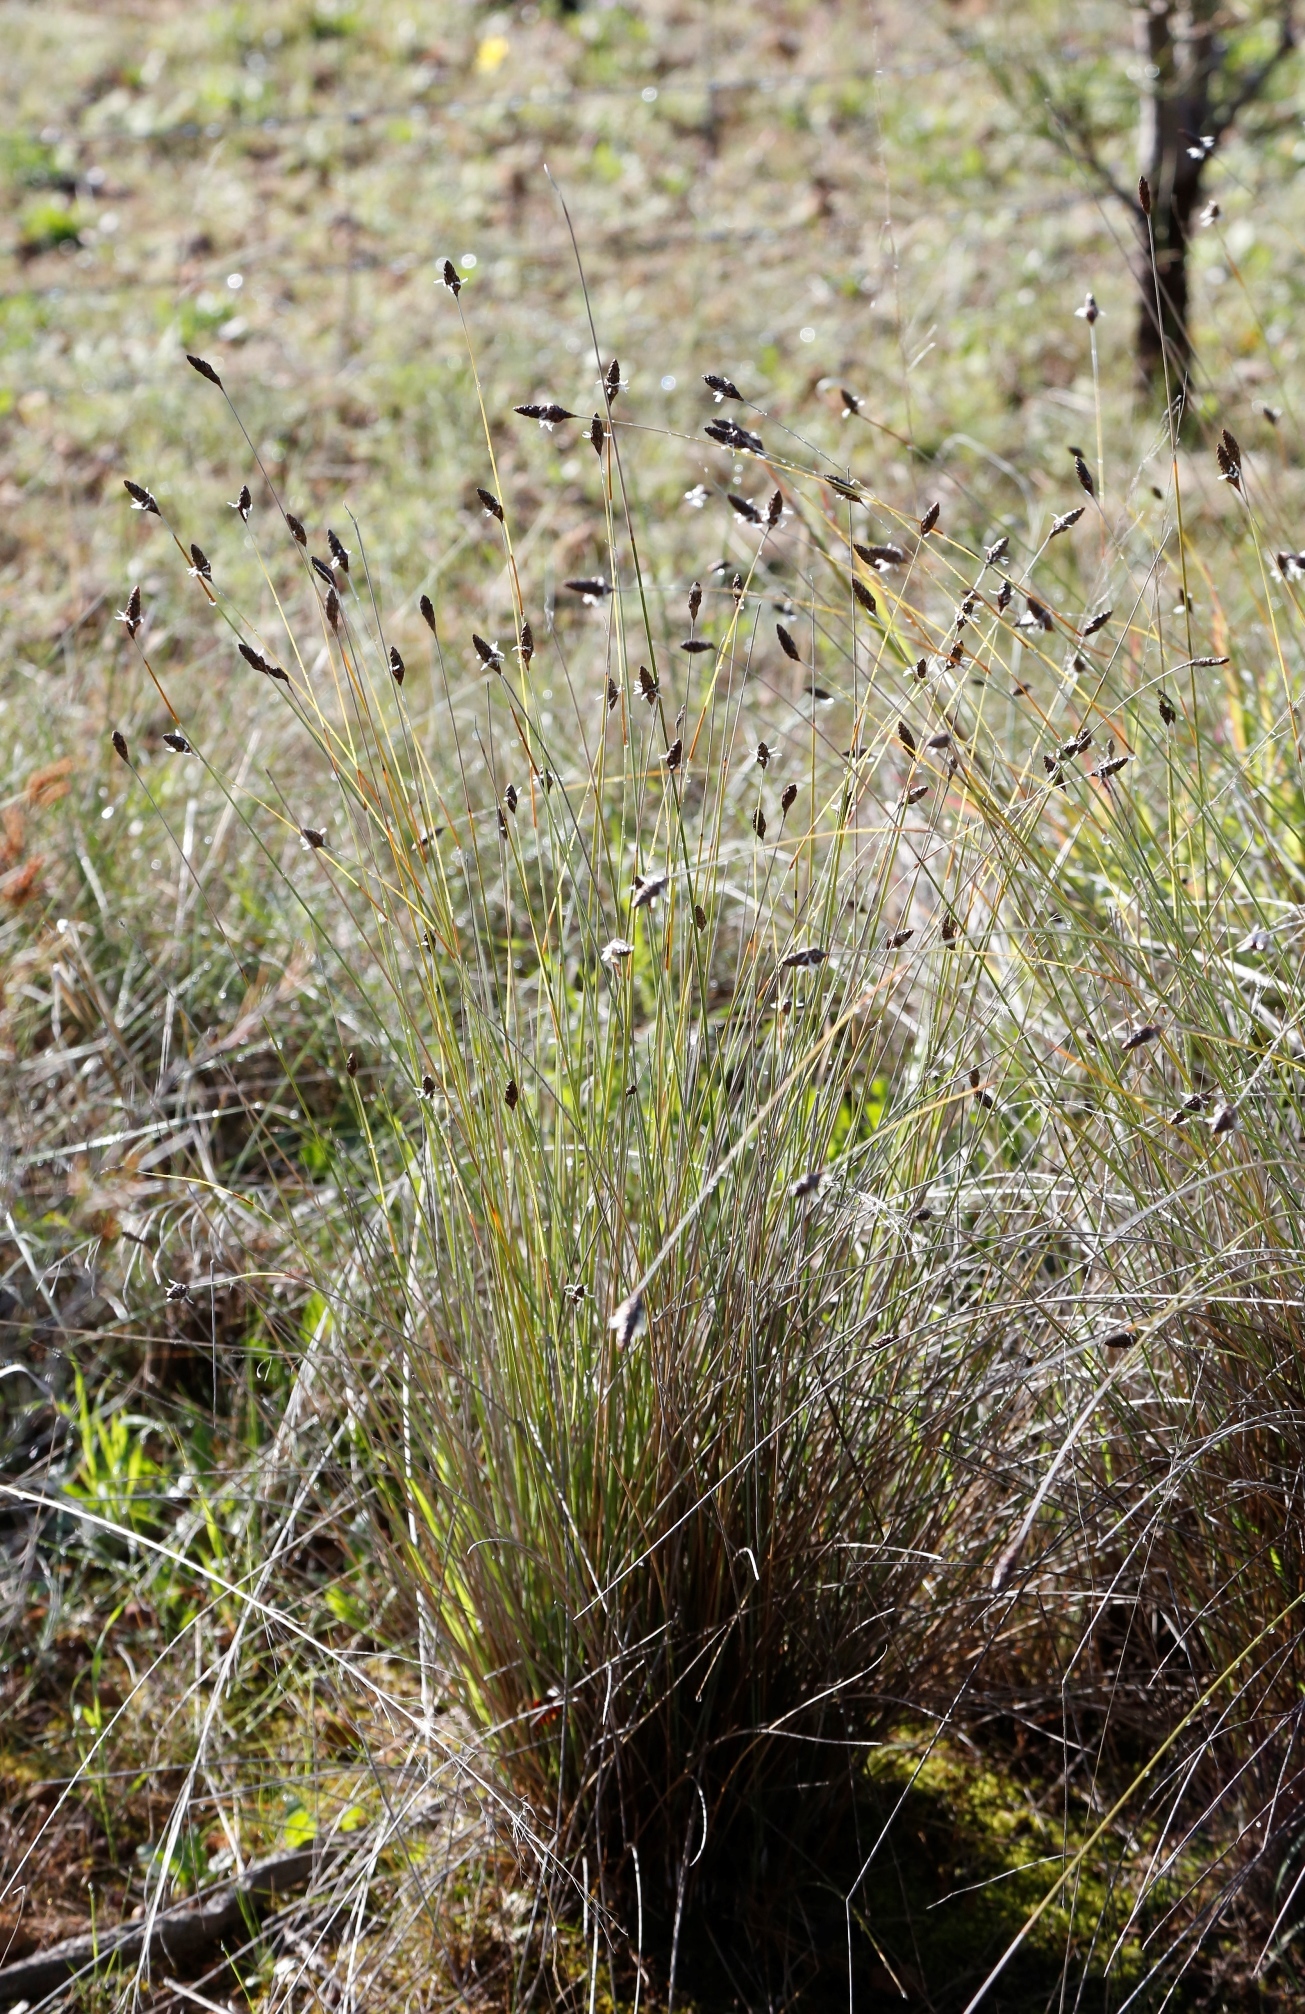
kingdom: Plantae
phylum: Tracheophyta
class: Liliopsida
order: Poales
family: Ecdeiocoleaceae
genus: Ecdeiocolea
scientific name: Ecdeiocolea monostachya
